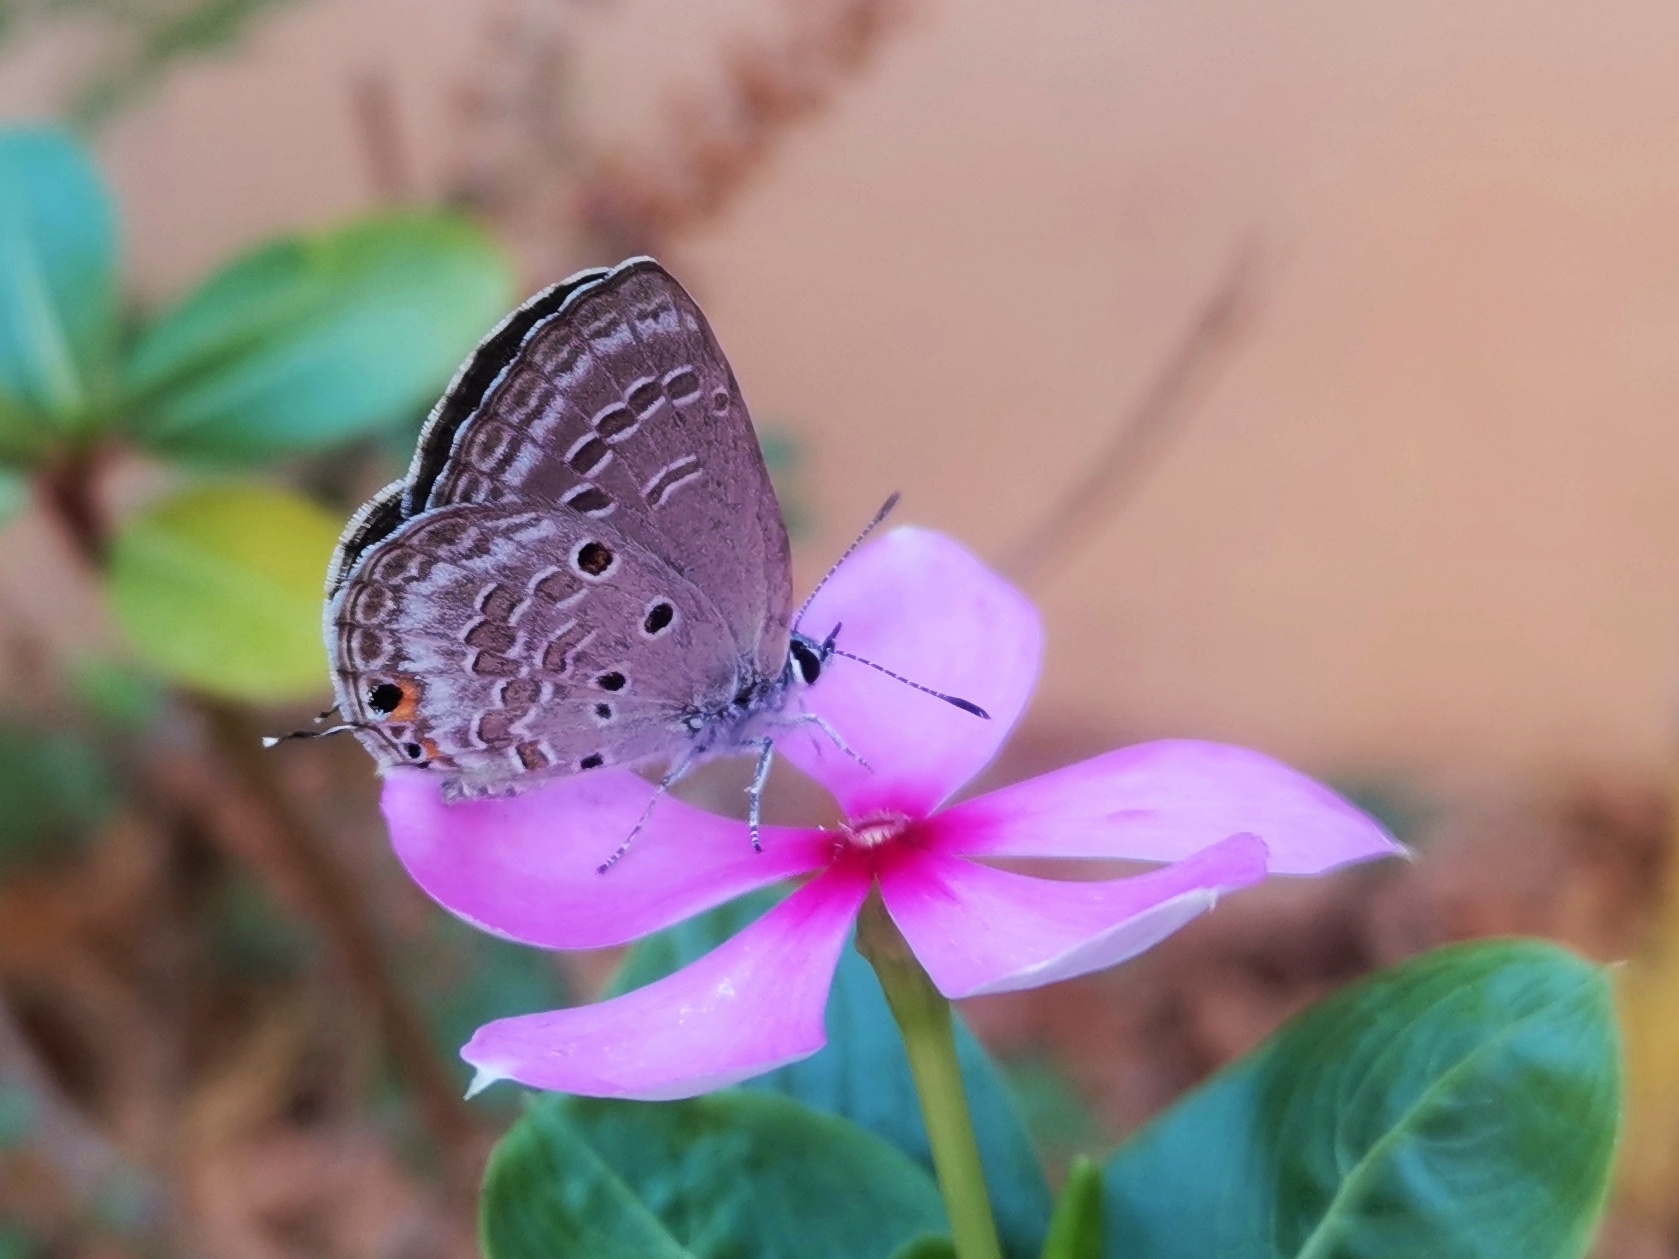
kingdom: Animalia
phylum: Arthropoda
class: Insecta
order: Lepidoptera
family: Lycaenidae
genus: Luthrodes
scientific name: Luthrodes pandava
